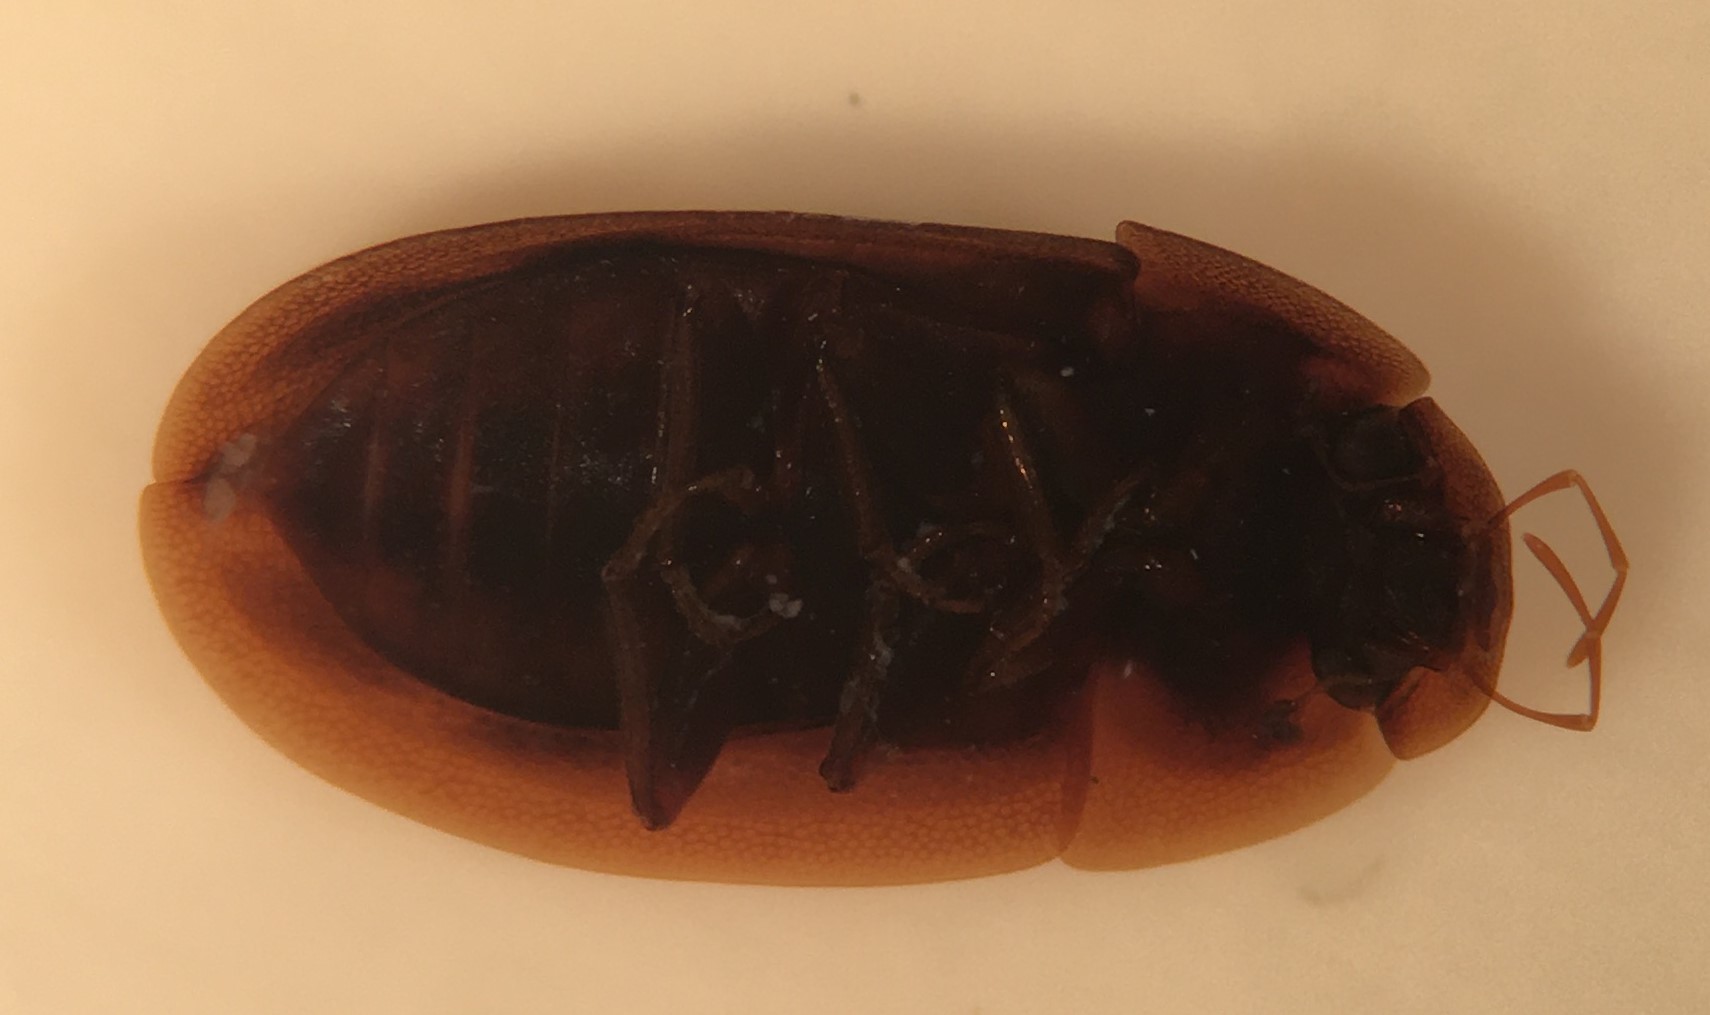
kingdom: Animalia
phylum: Arthropoda
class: Insecta
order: Coleoptera
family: Hydrophilidae
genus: Helobata
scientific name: Helobata larvalis
